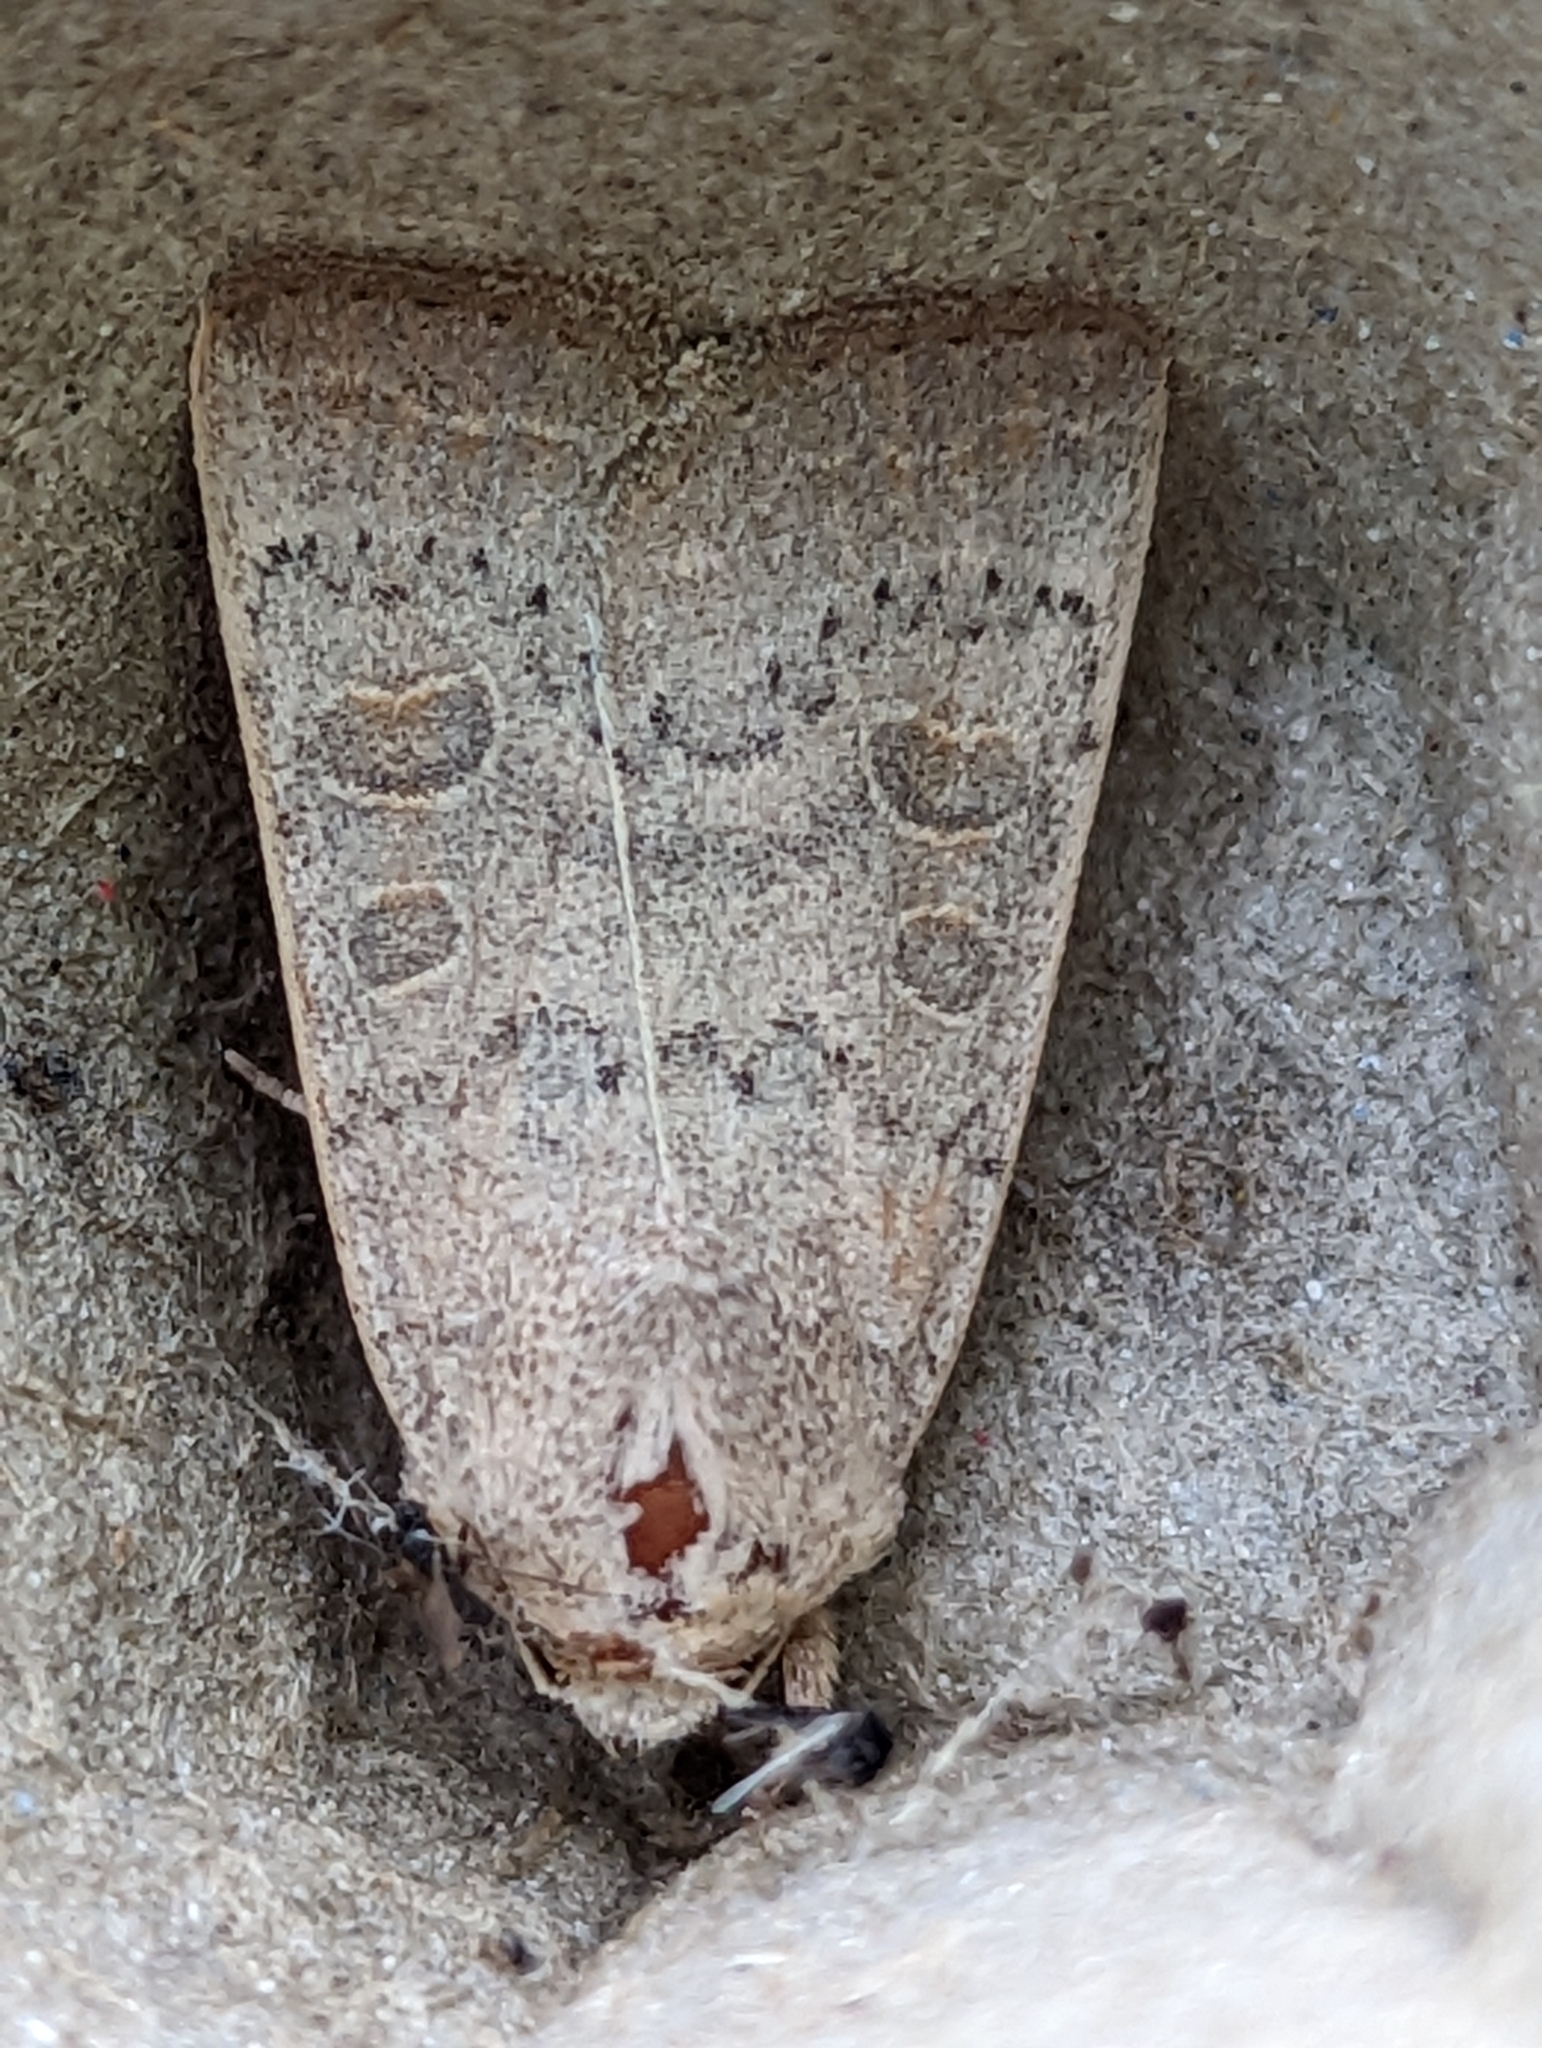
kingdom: Animalia
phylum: Arthropoda
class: Insecta
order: Lepidoptera
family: Noctuidae
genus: Hoplodrina
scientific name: Hoplodrina ambigua
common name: Vine's rustic
